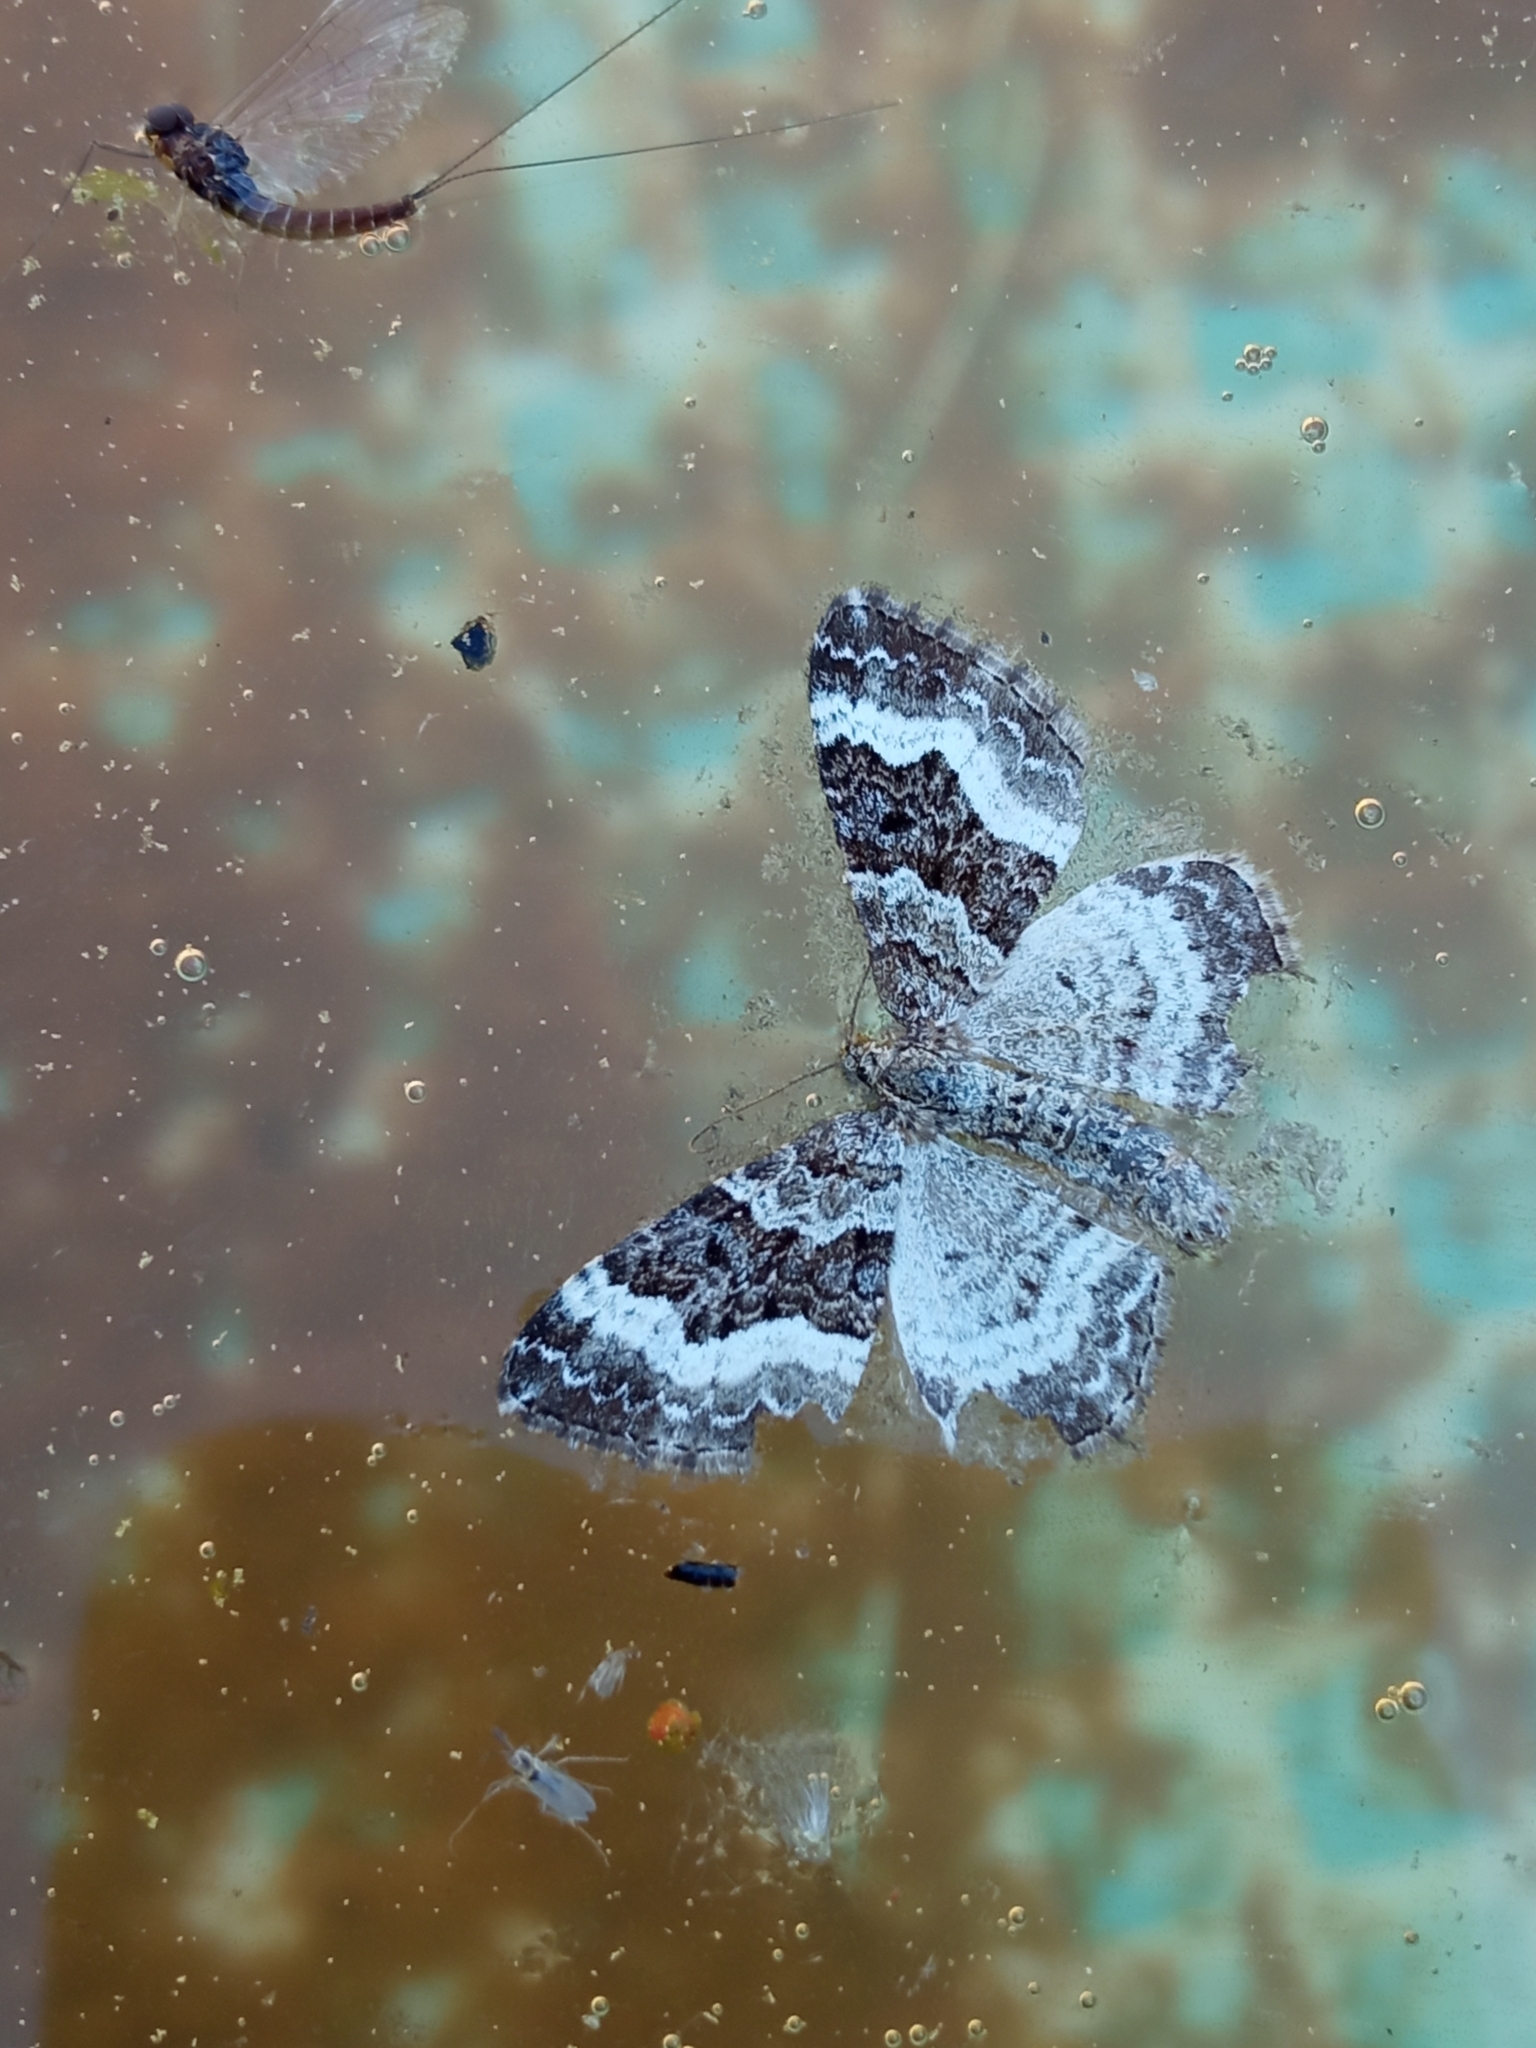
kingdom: Animalia
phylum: Arthropoda
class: Insecta
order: Lepidoptera
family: Geometridae
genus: Epirrhoe
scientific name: Epirrhoe alternata
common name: Common carpet
